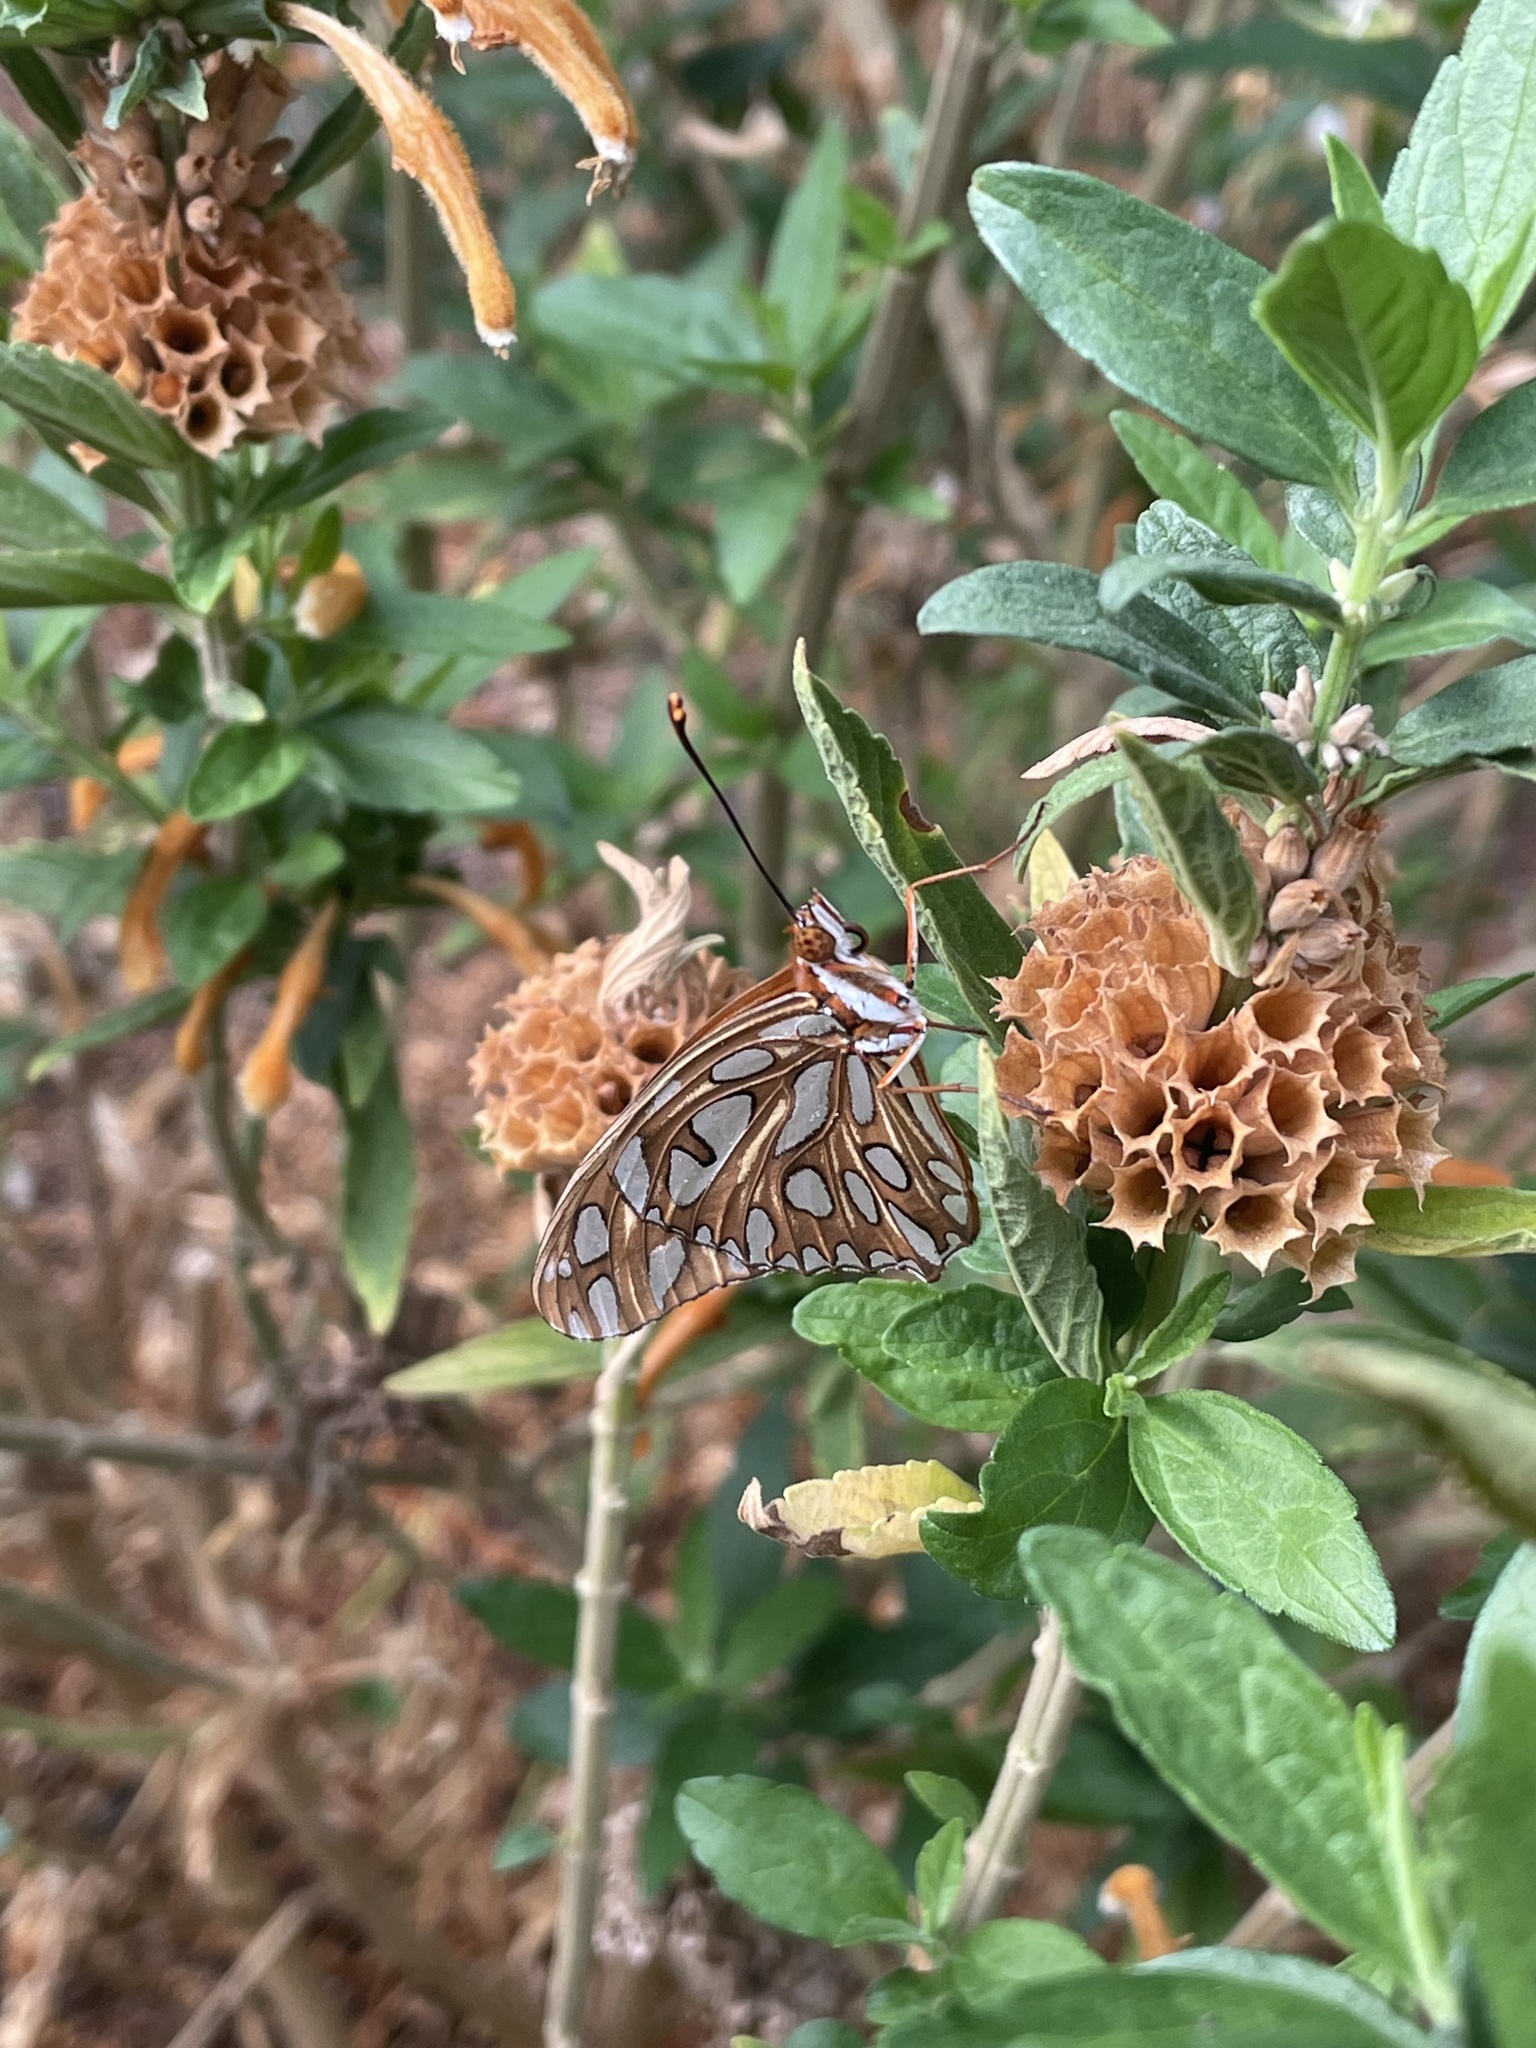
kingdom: Animalia
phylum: Arthropoda
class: Insecta
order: Lepidoptera
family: Nymphalidae
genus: Dione
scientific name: Dione vanillae
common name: Gulf fritillary
